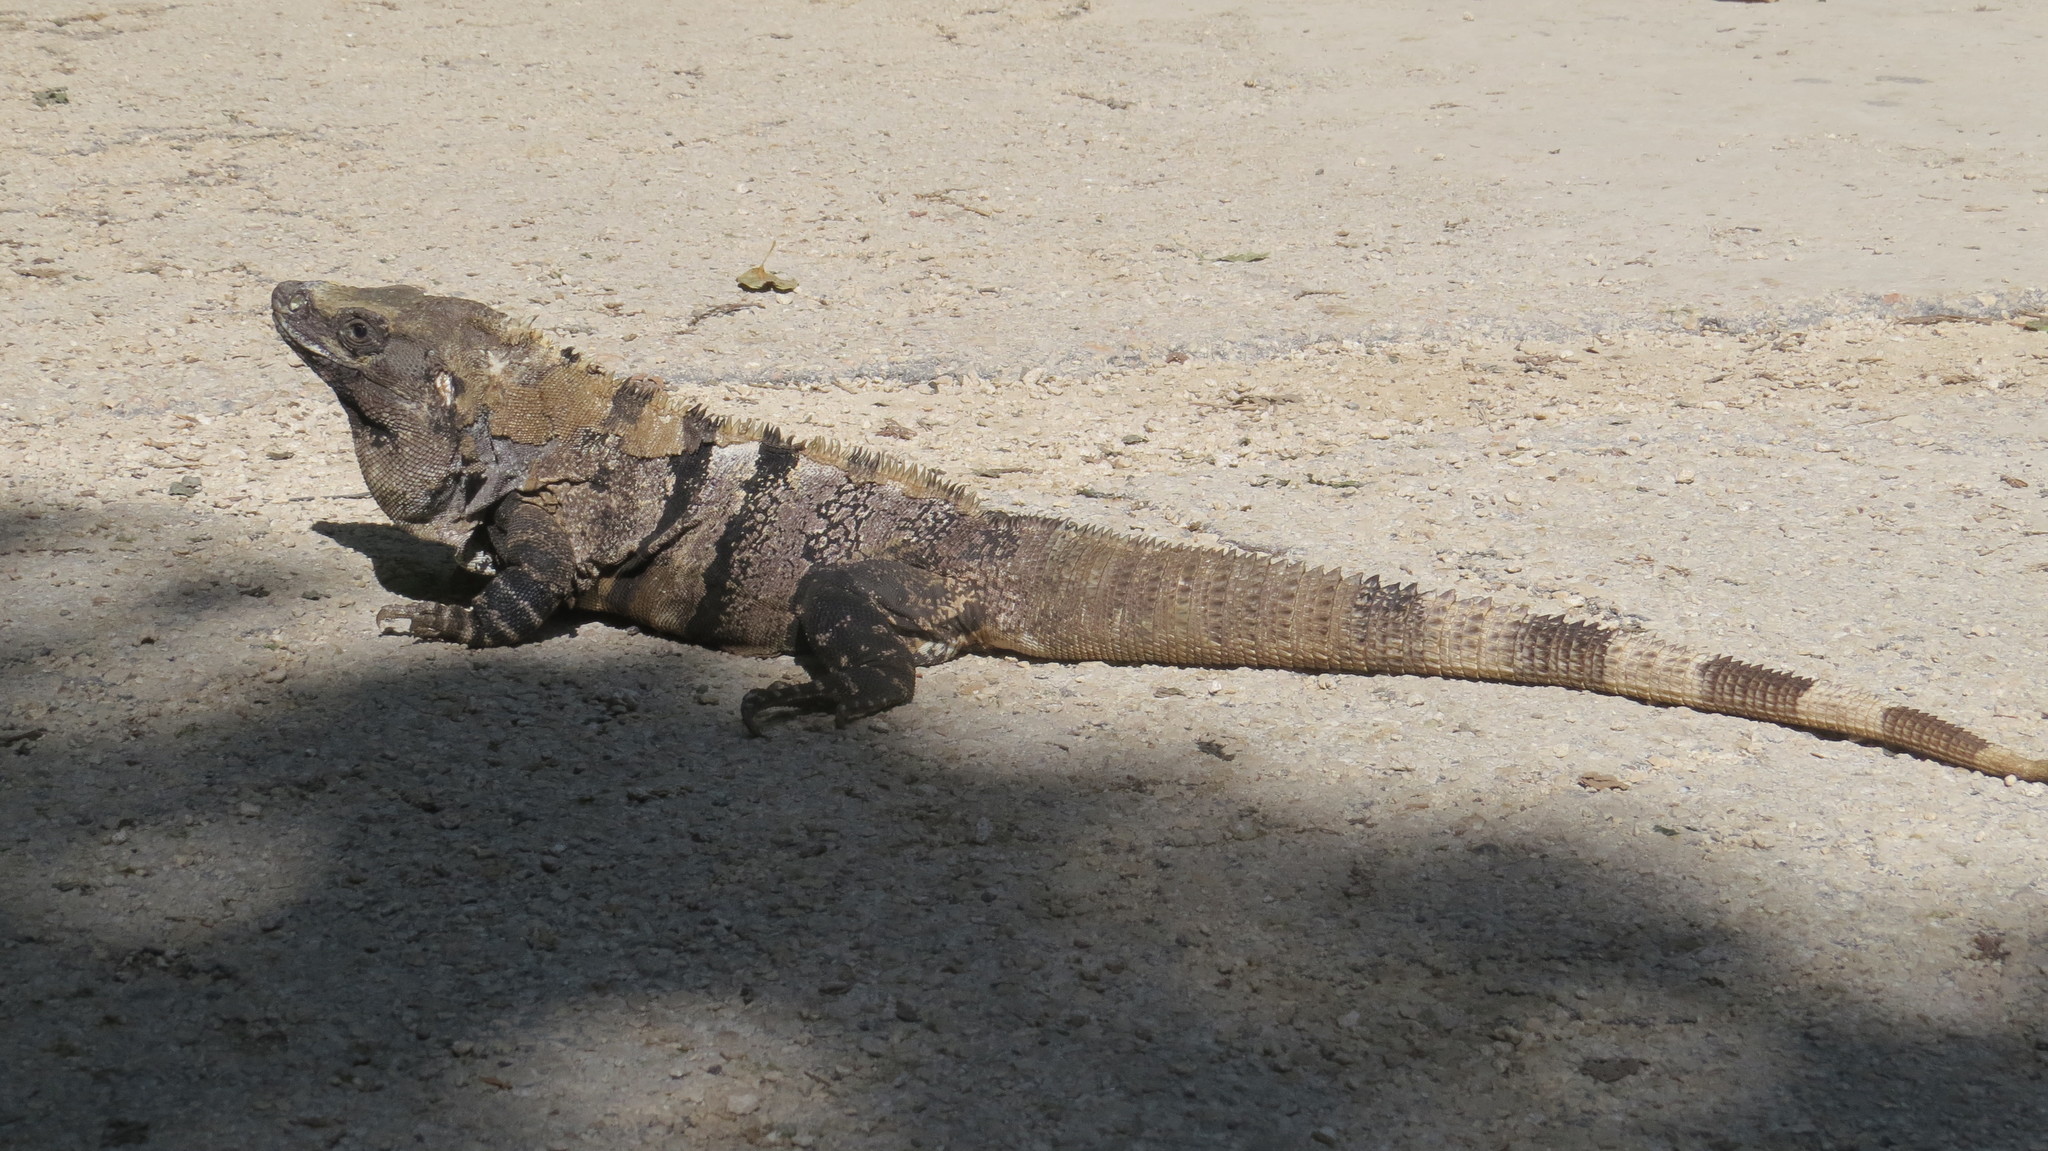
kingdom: Animalia
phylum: Chordata
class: Squamata
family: Iguanidae
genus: Ctenosaura
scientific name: Ctenosaura similis
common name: Black spiny-tailed iguana
